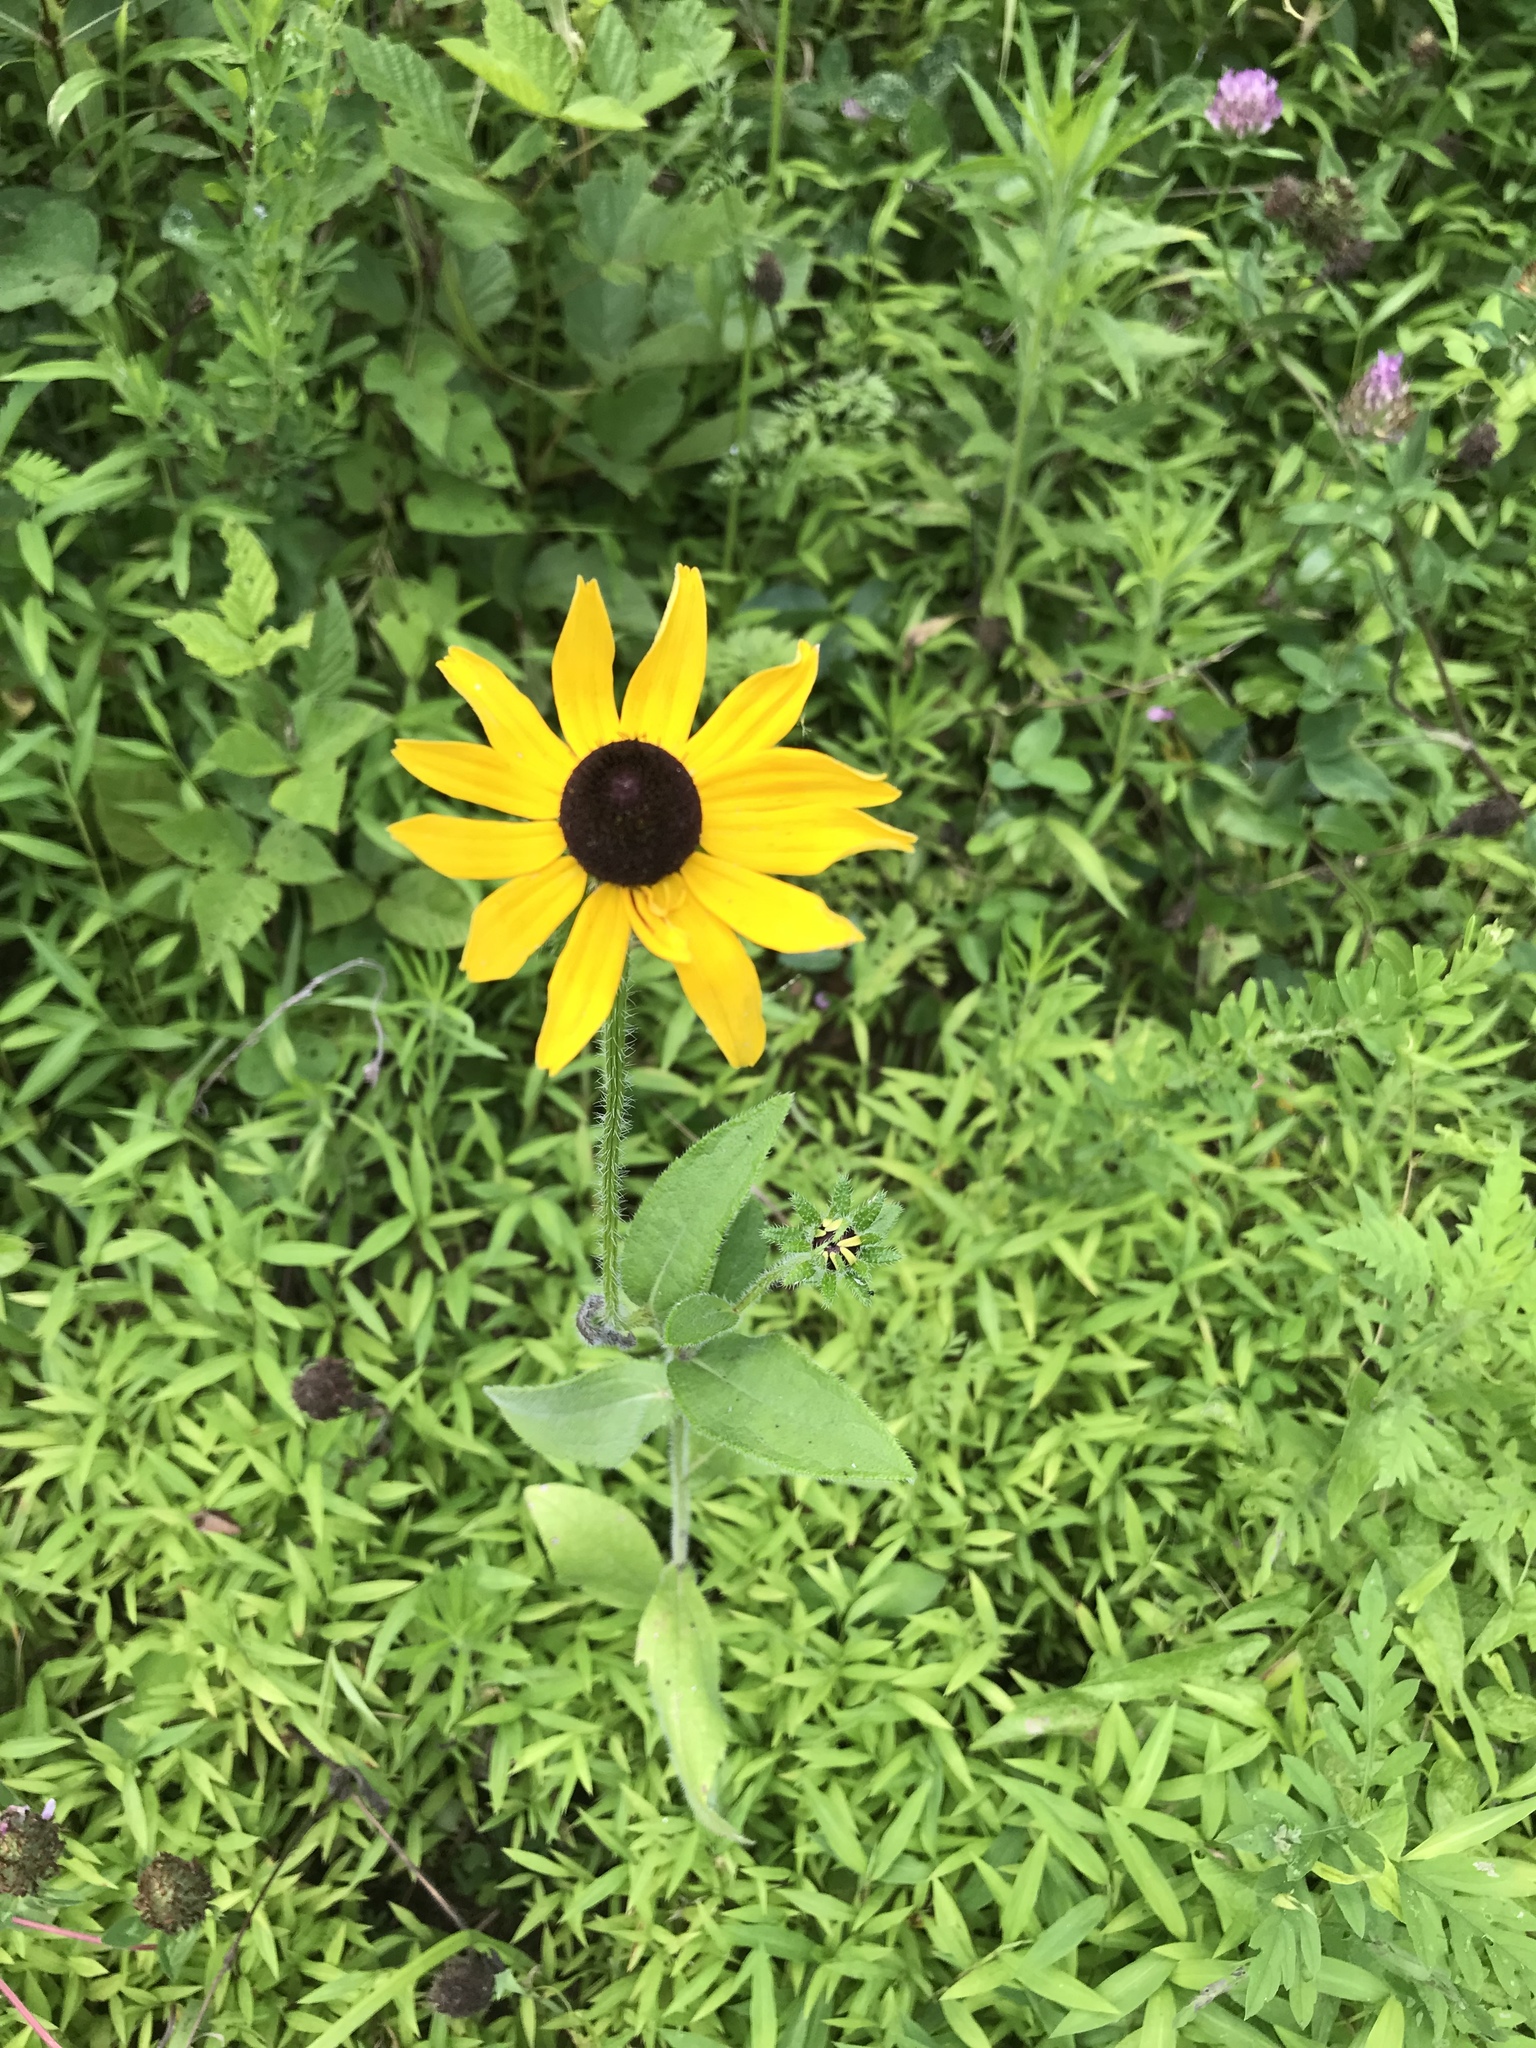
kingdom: Plantae
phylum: Tracheophyta
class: Magnoliopsida
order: Asterales
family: Asteraceae
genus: Rudbeckia
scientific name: Rudbeckia hirta
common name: Black-eyed-susan
